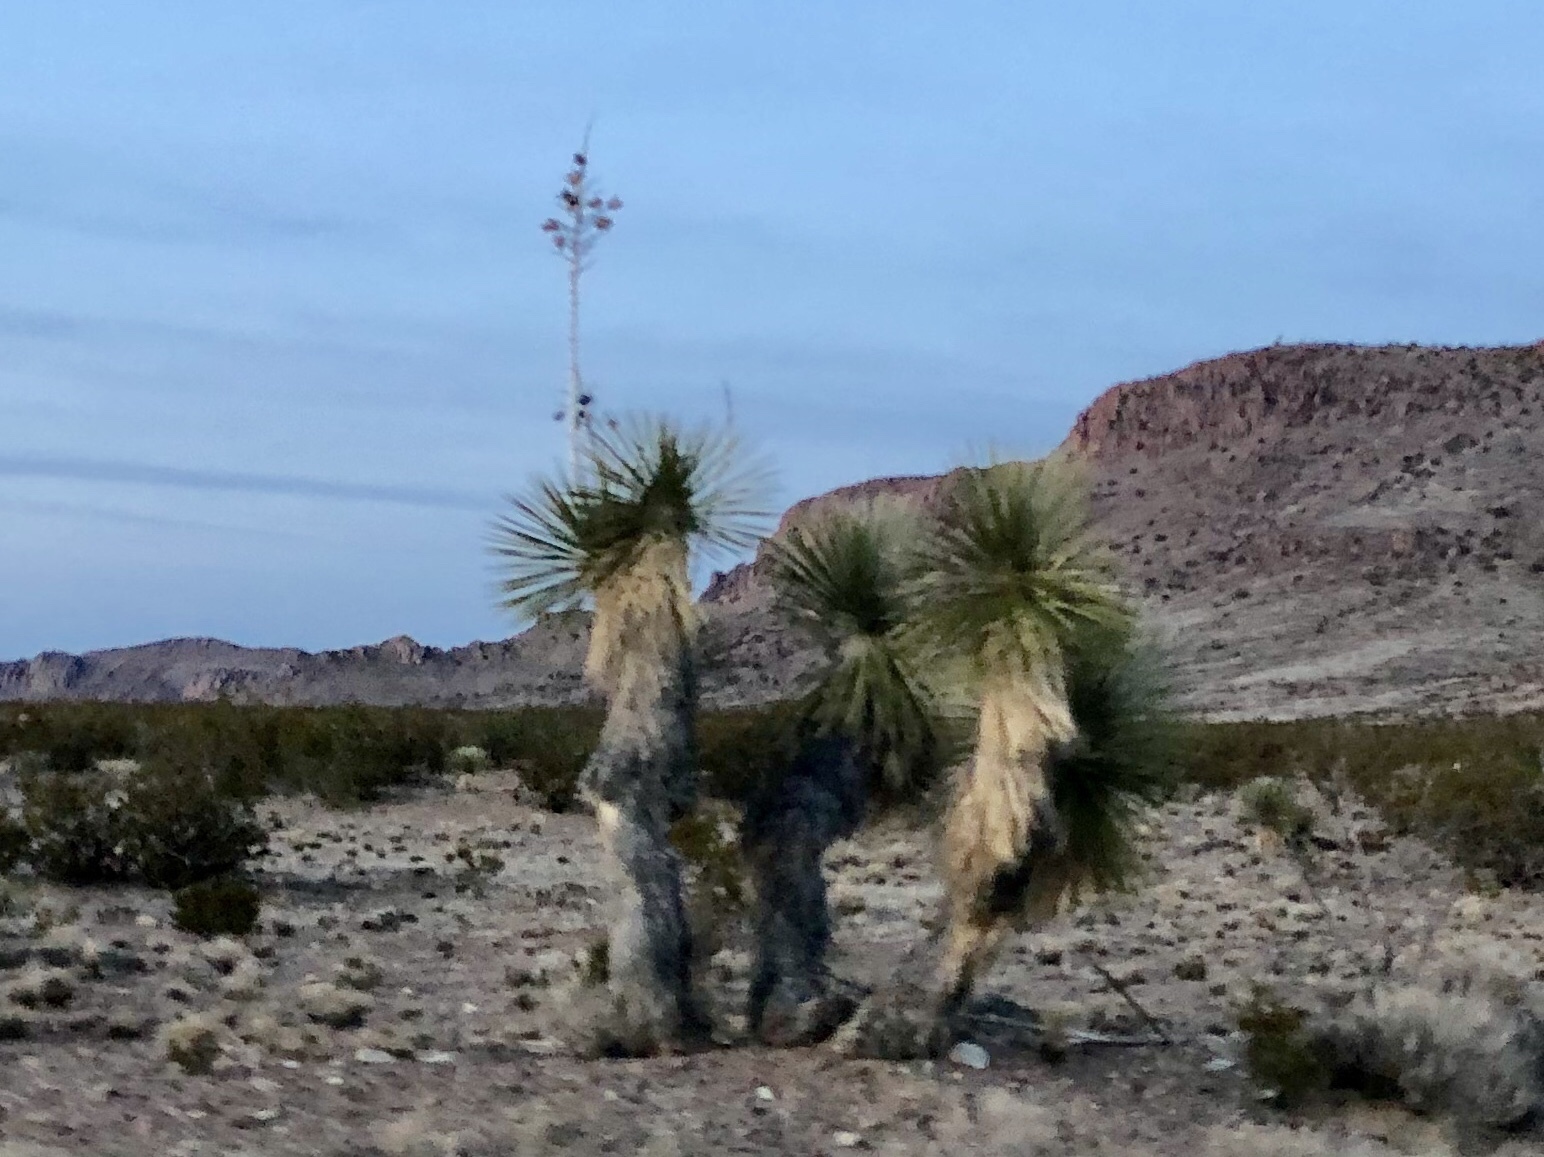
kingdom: Plantae
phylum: Tracheophyta
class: Liliopsida
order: Asparagales
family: Asparagaceae
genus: Yucca
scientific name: Yucca elata
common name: Palmella
